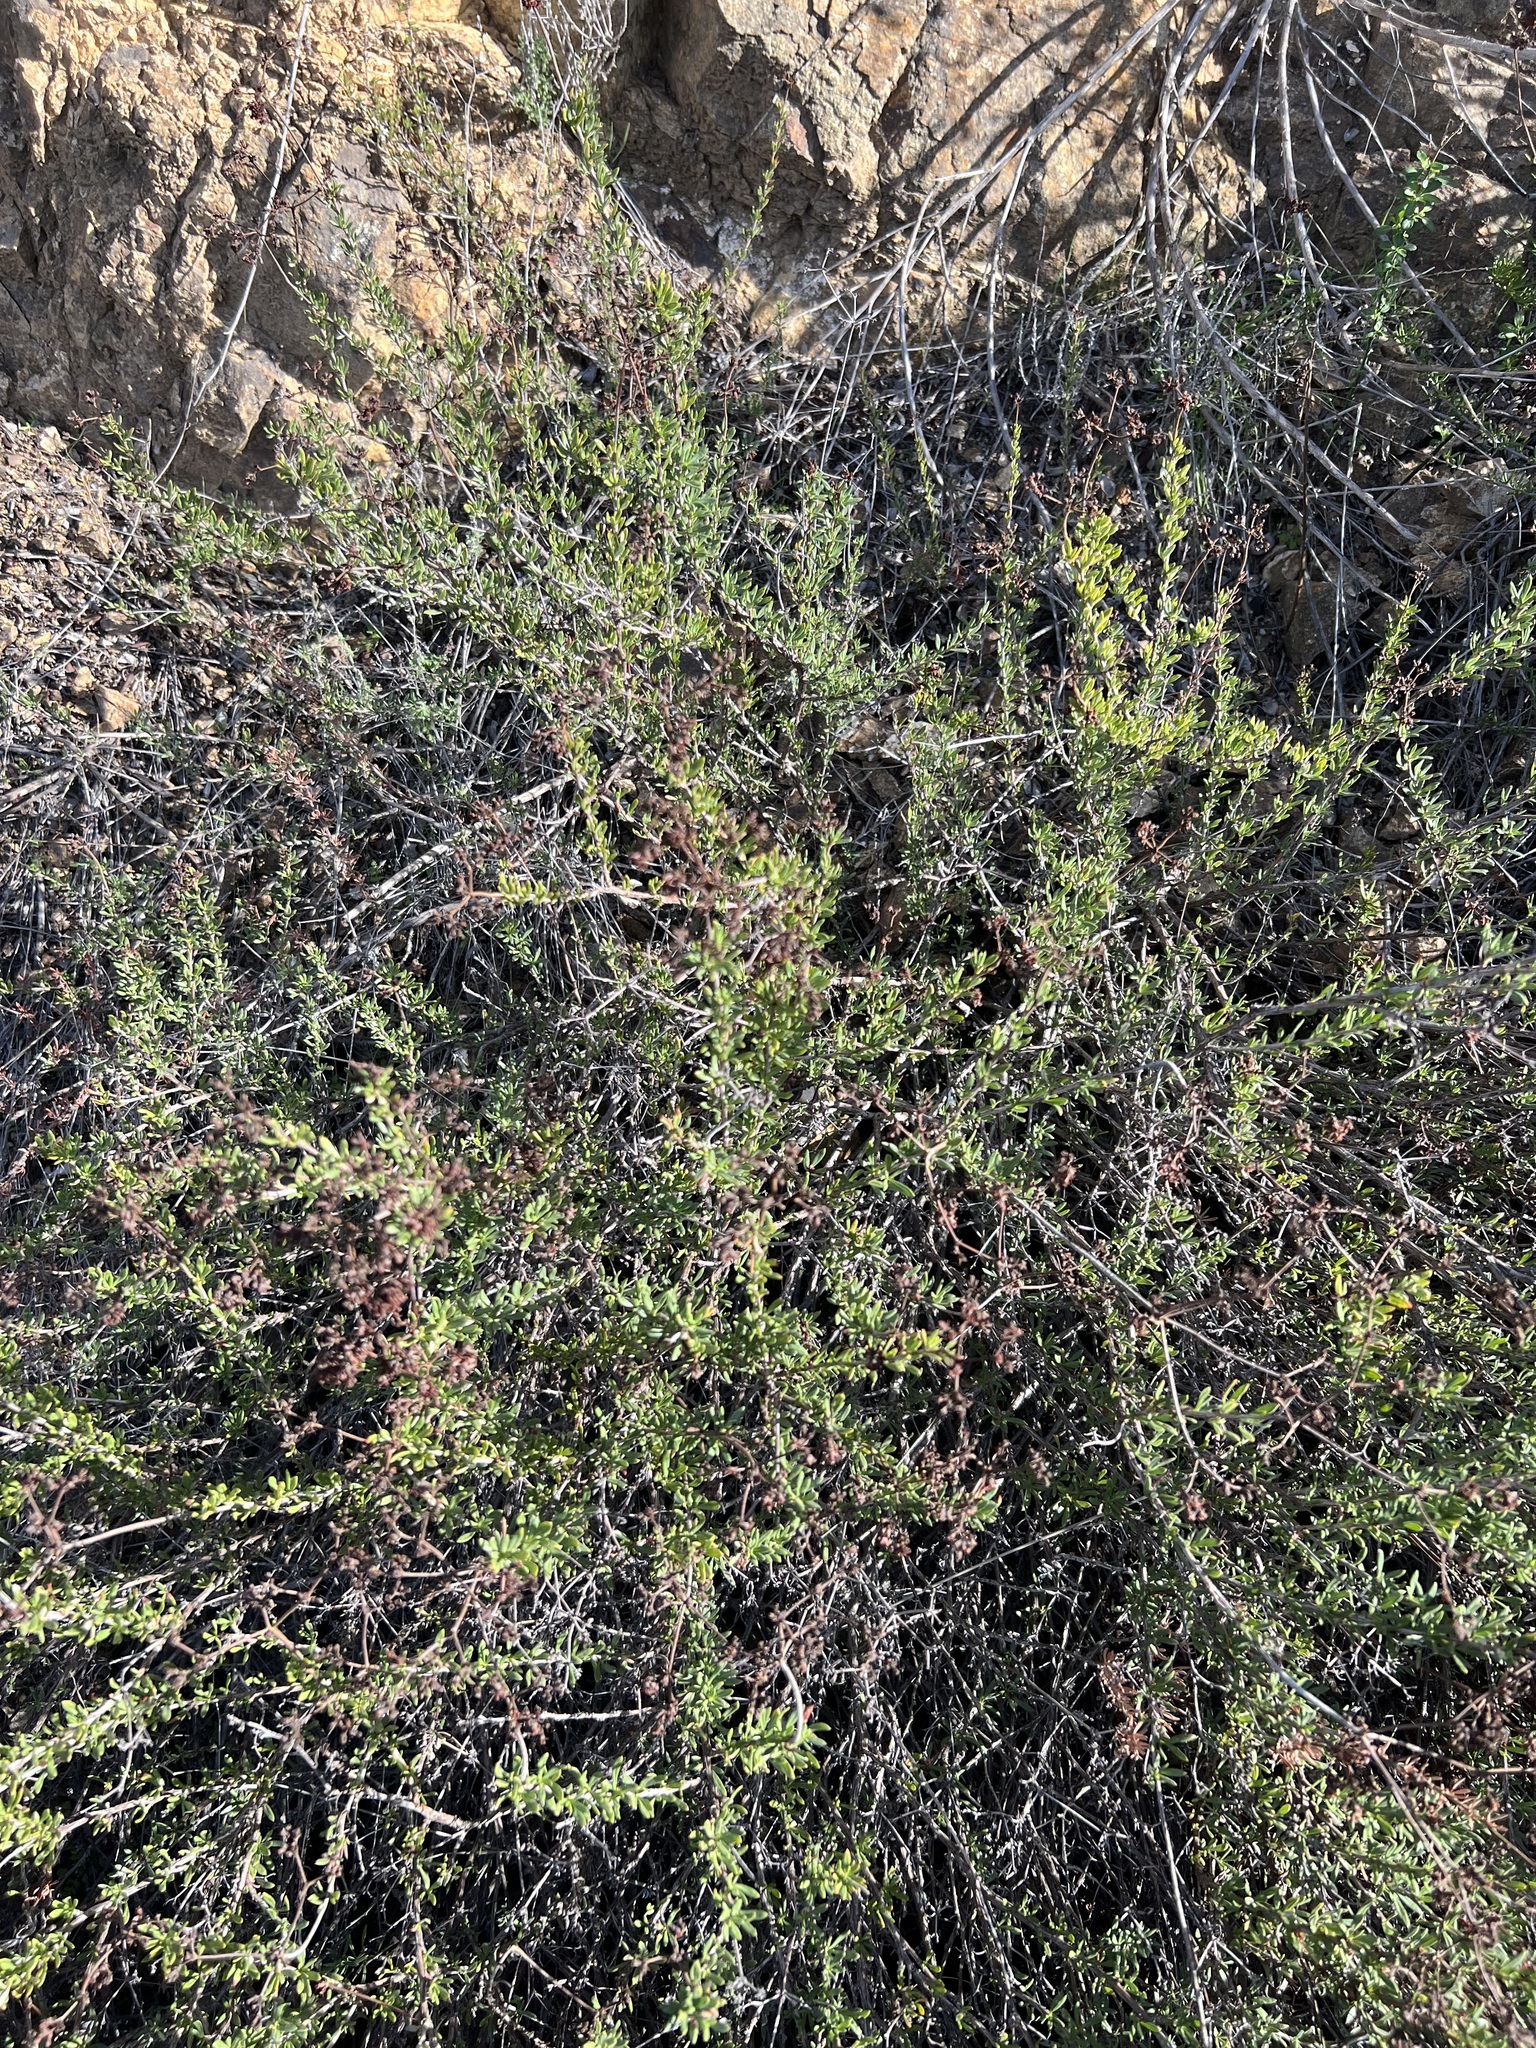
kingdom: Plantae
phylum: Tracheophyta
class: Magnoliopsida
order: Caryophyllales
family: Polygonaceae
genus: Eriogonum
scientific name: Eriogonum fasciculatum
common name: California wild buckwheat
